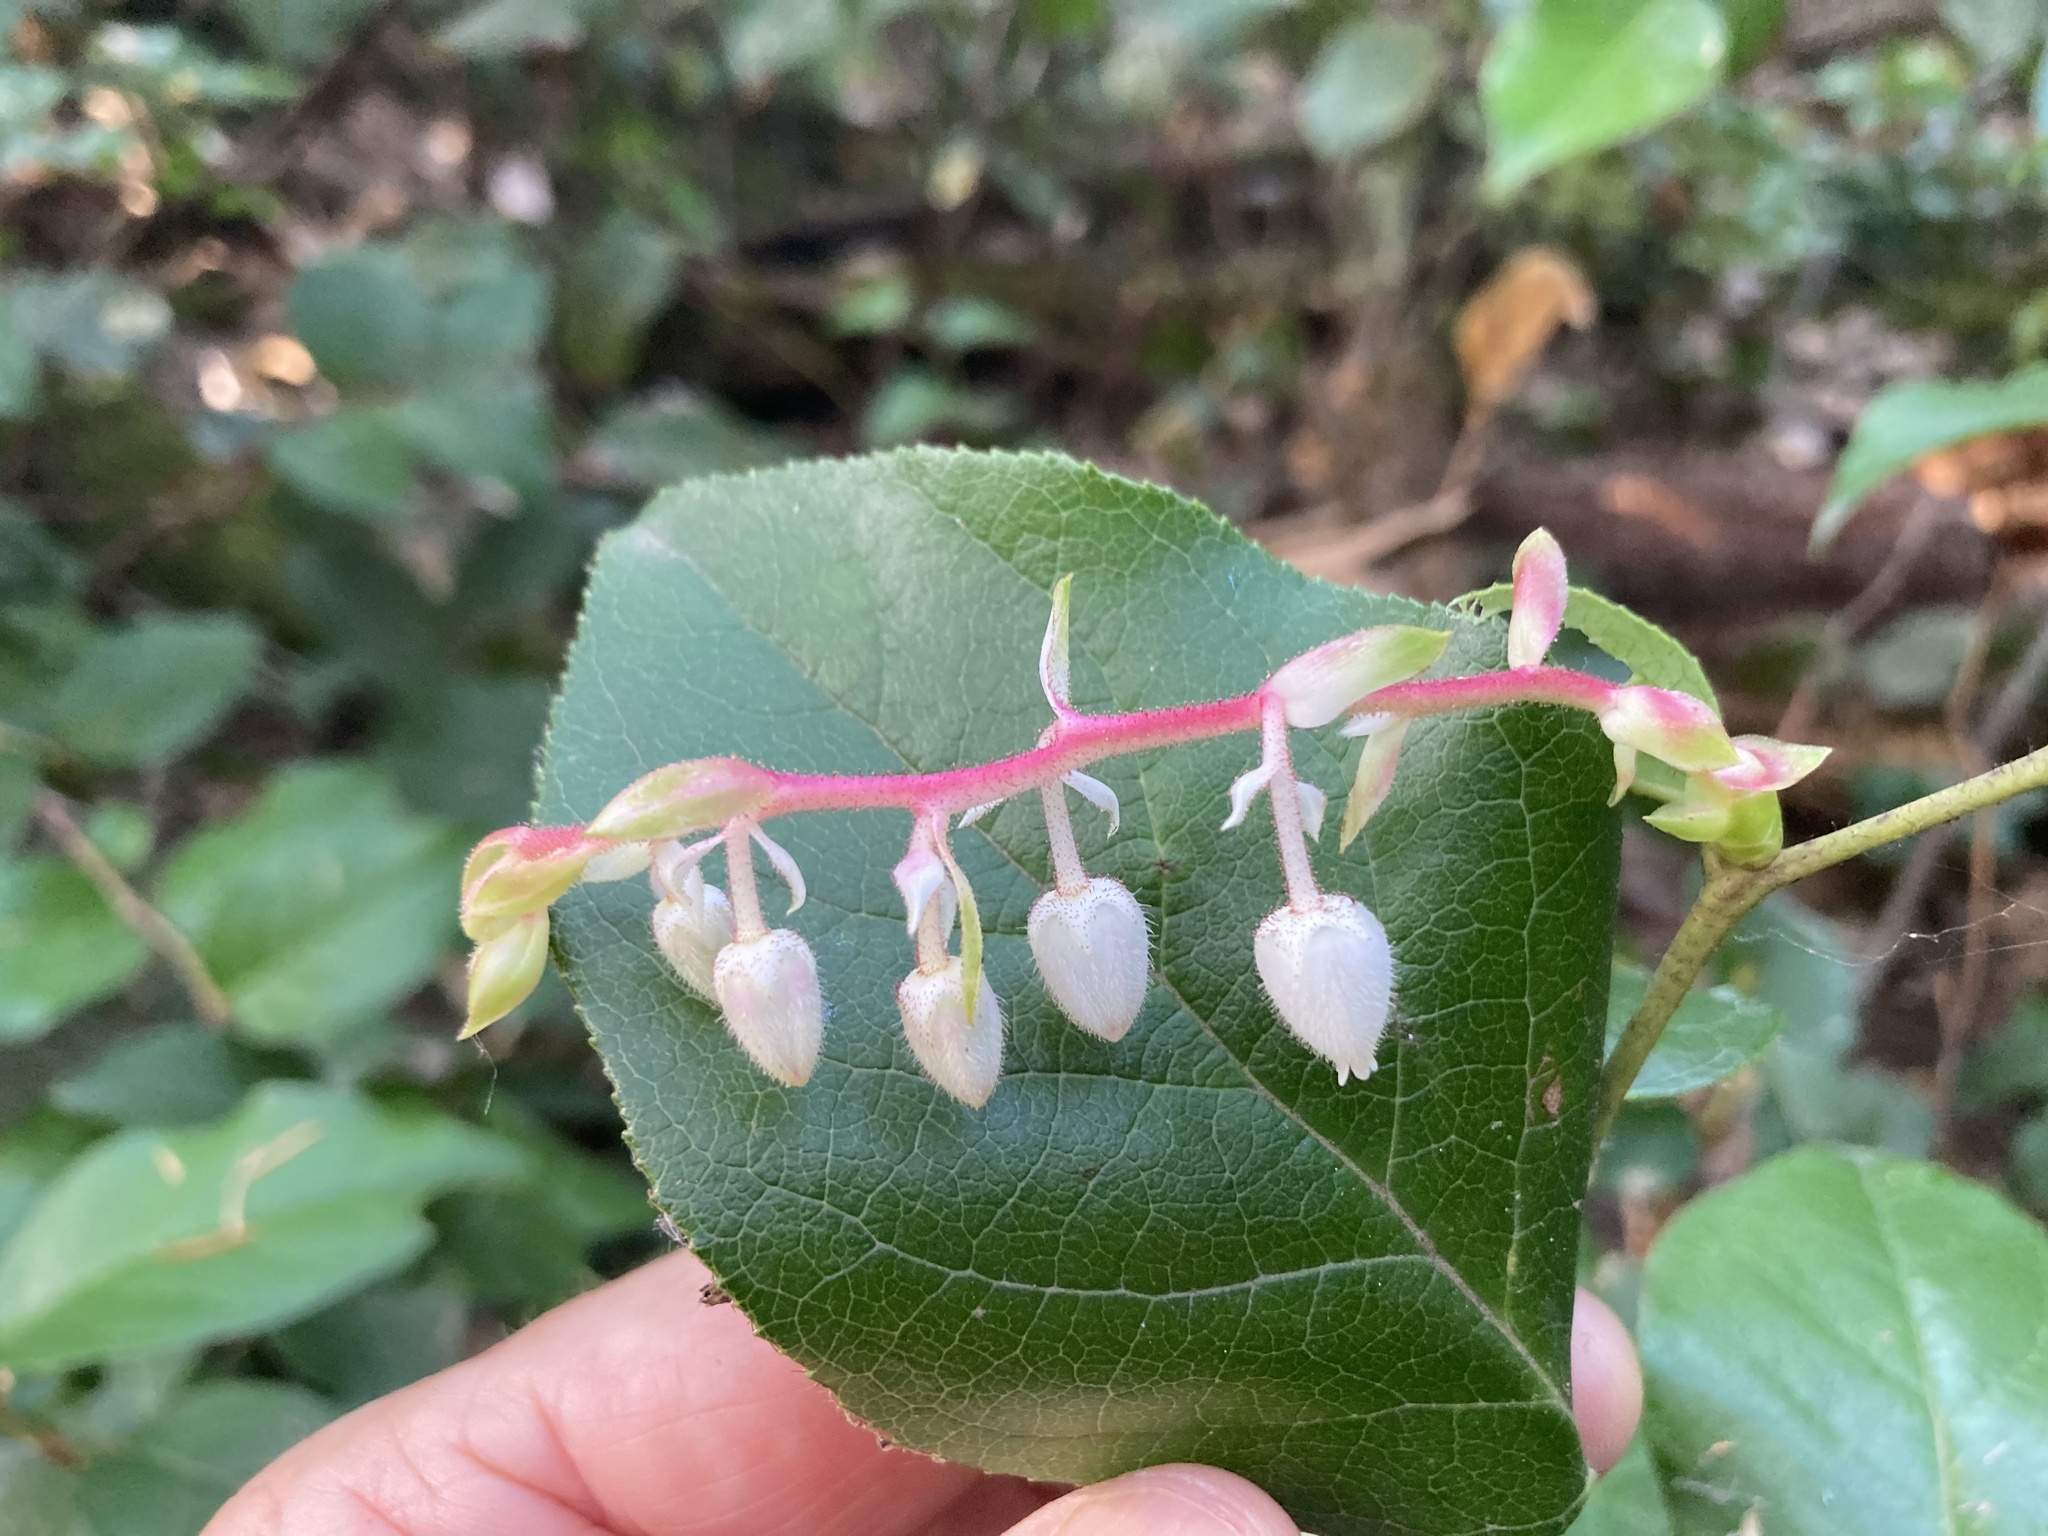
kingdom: Plantae
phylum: Tracheophyta
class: Magnoliopsida
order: Ericales
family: Ericaceae
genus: Gaultheria
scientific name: Gaultheria shallon
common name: Shallon
